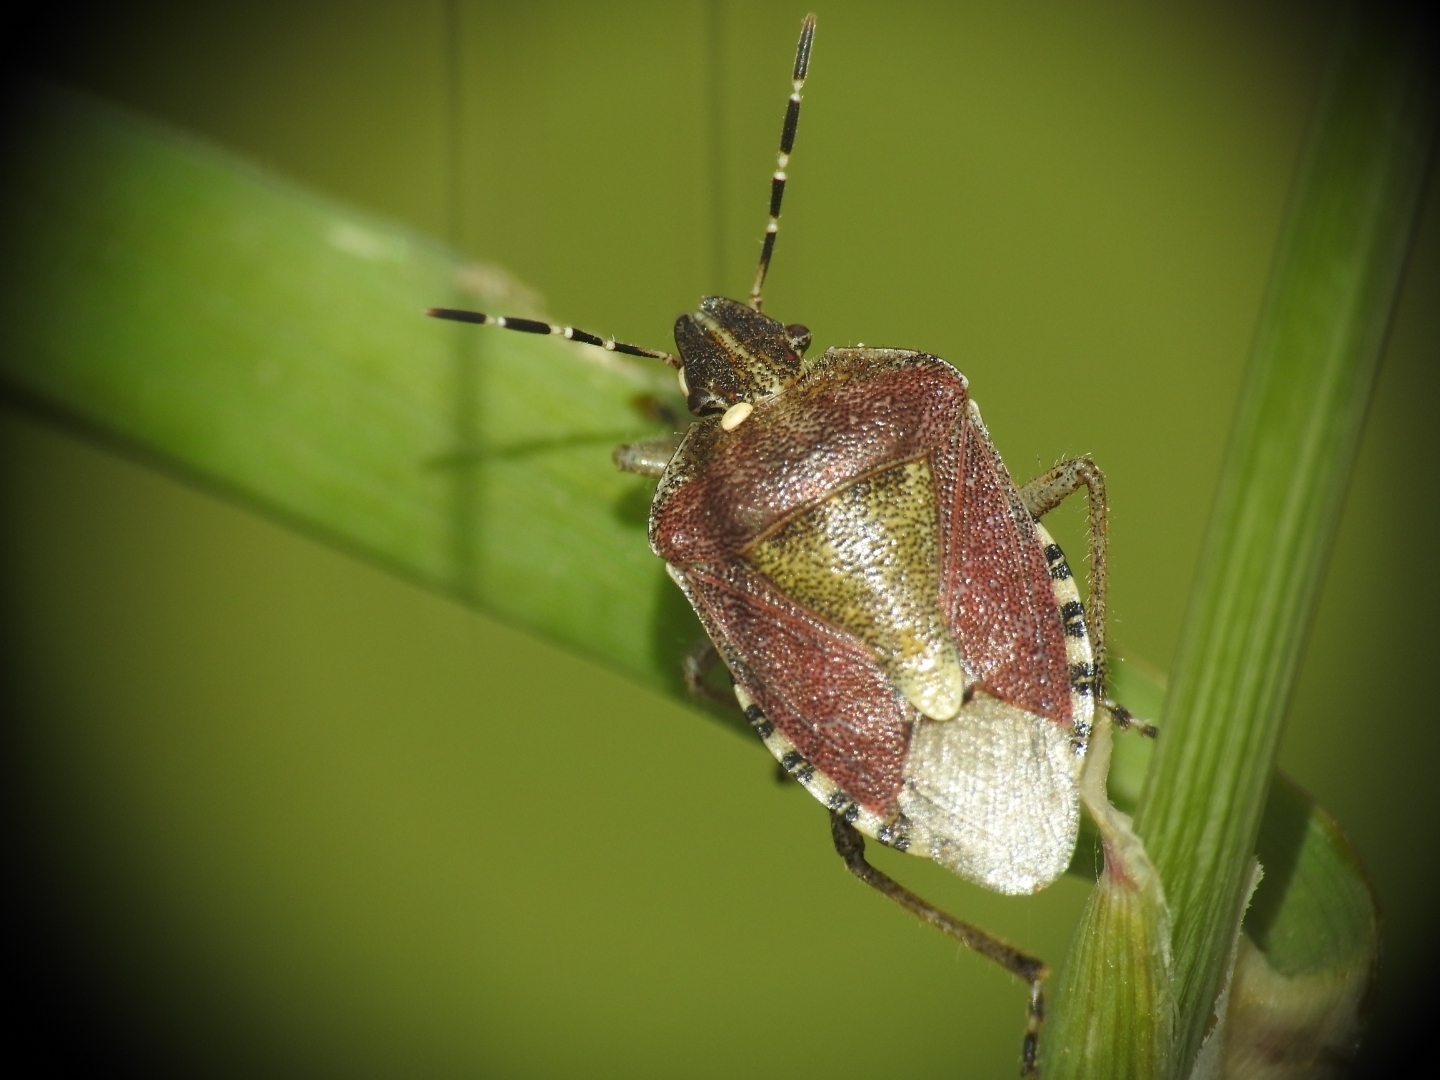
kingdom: Animalia
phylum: Arthropoda
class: Insecta
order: Hemiptera
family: Pentatomidae
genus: Dolycoris
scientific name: Dolycoris baccarum
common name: Sloe bug
